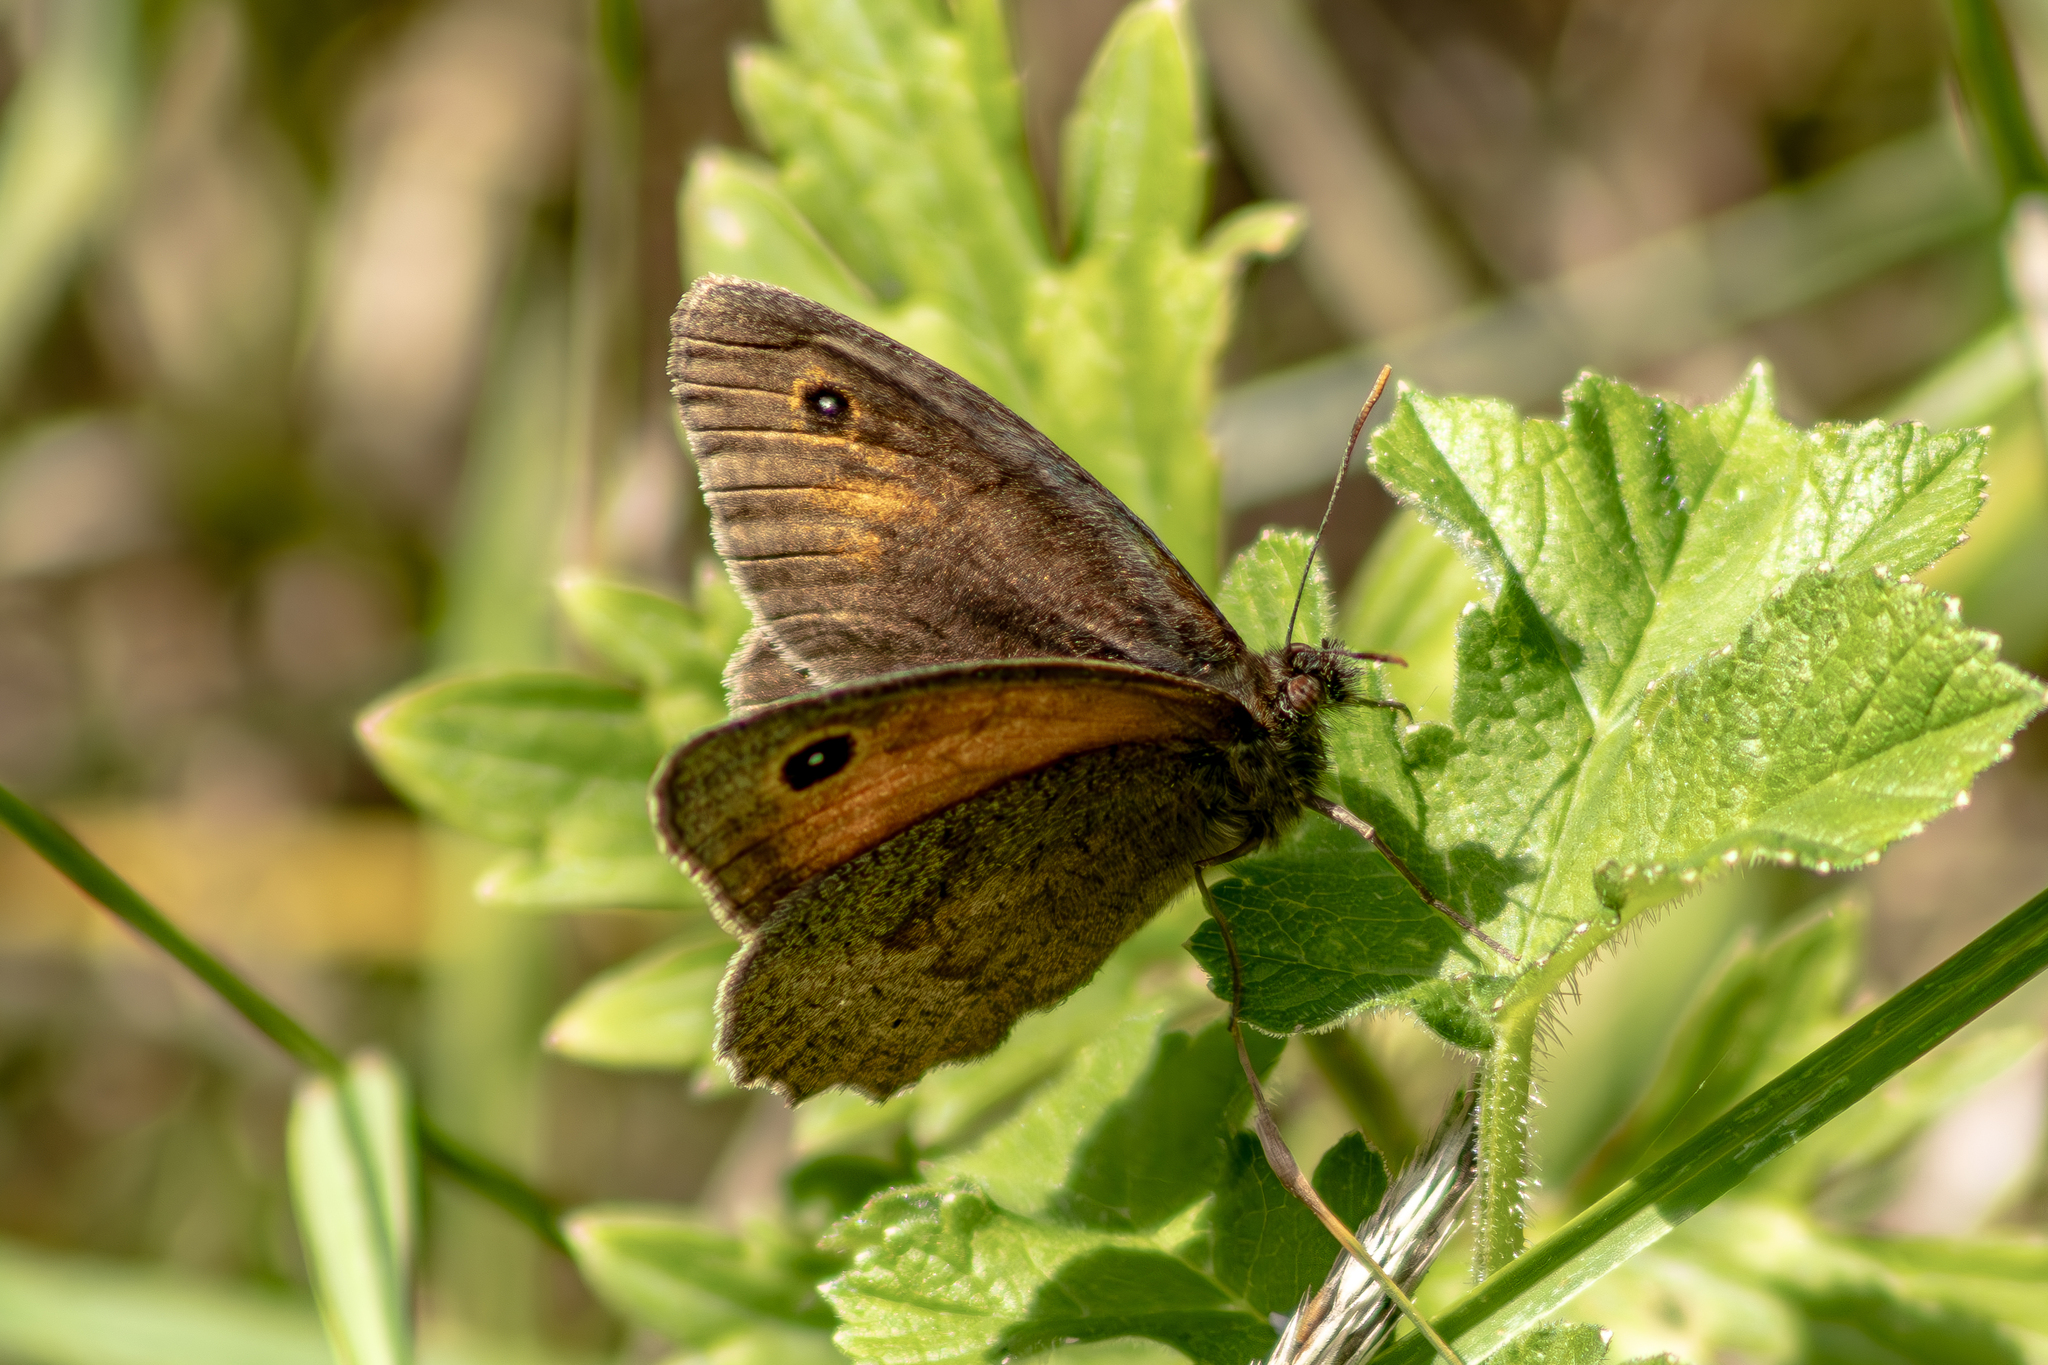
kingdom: Animalia
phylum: Arthropoda
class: Insecta
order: Lepidoptera
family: Nymphalidae
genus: Maniola
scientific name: Maniola jurtina
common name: Meadow brown
